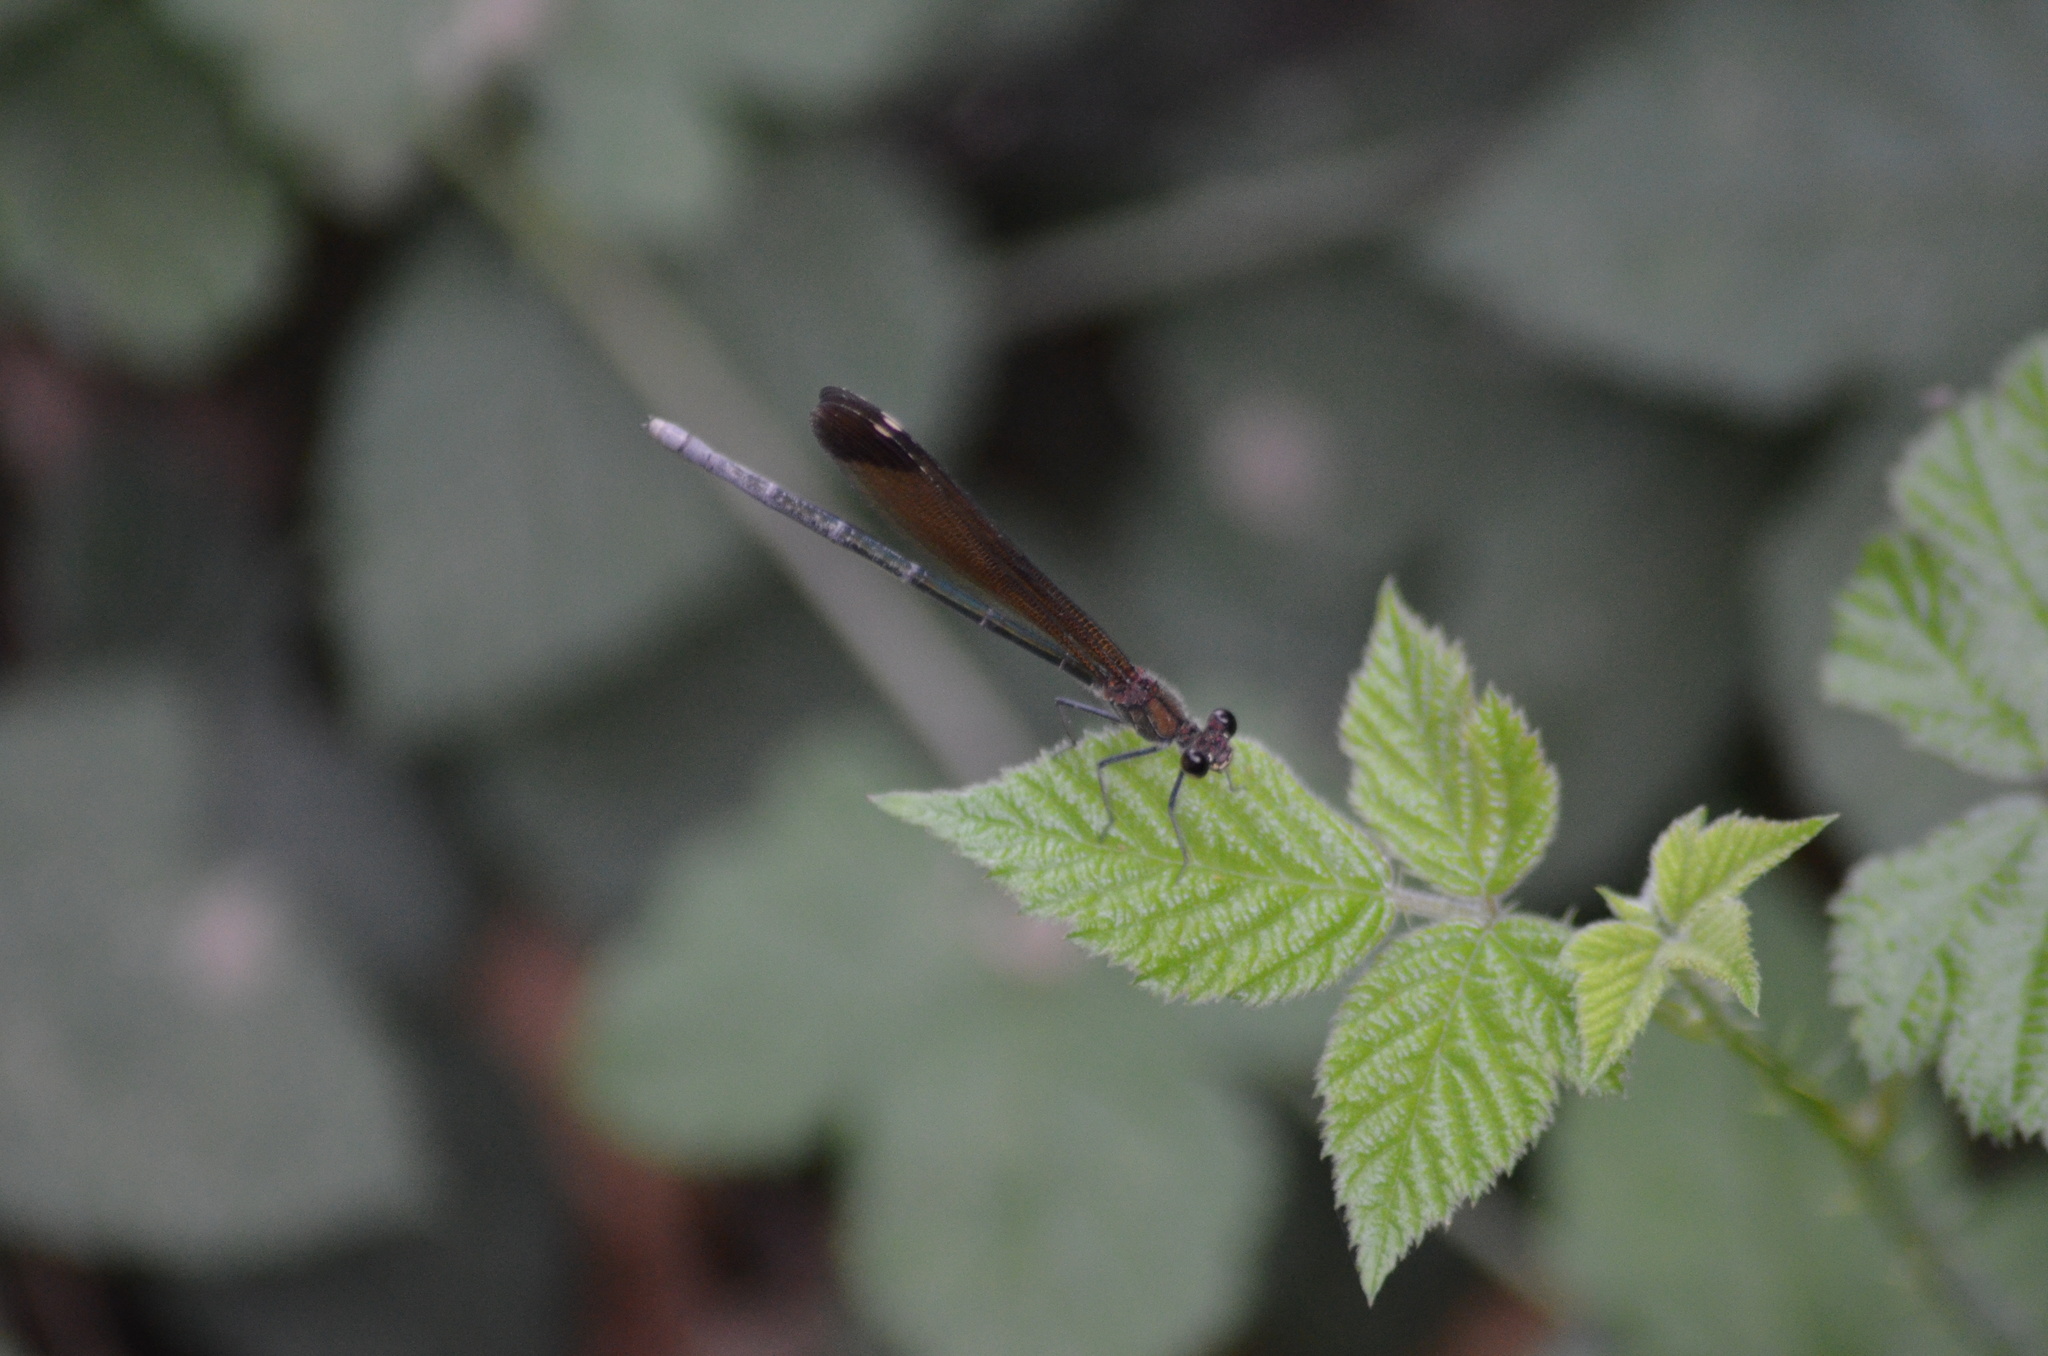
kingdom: Animalia
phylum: Arthropoda
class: Insecta
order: Odonata
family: Calopterygidae
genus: Calopteryx
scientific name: Calopteryx haemorrhoidalis
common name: Copper demoiselle
